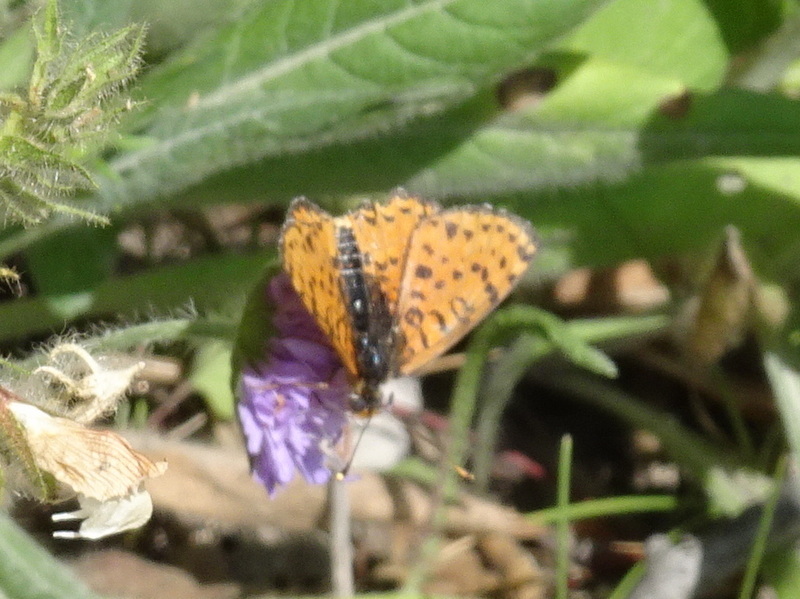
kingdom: Animalia
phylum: Arthropoda
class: Insecta
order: Lepidoptera
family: Nymphalidae
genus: Melitaea
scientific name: Melitaea didyma
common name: Spotted fritillary
